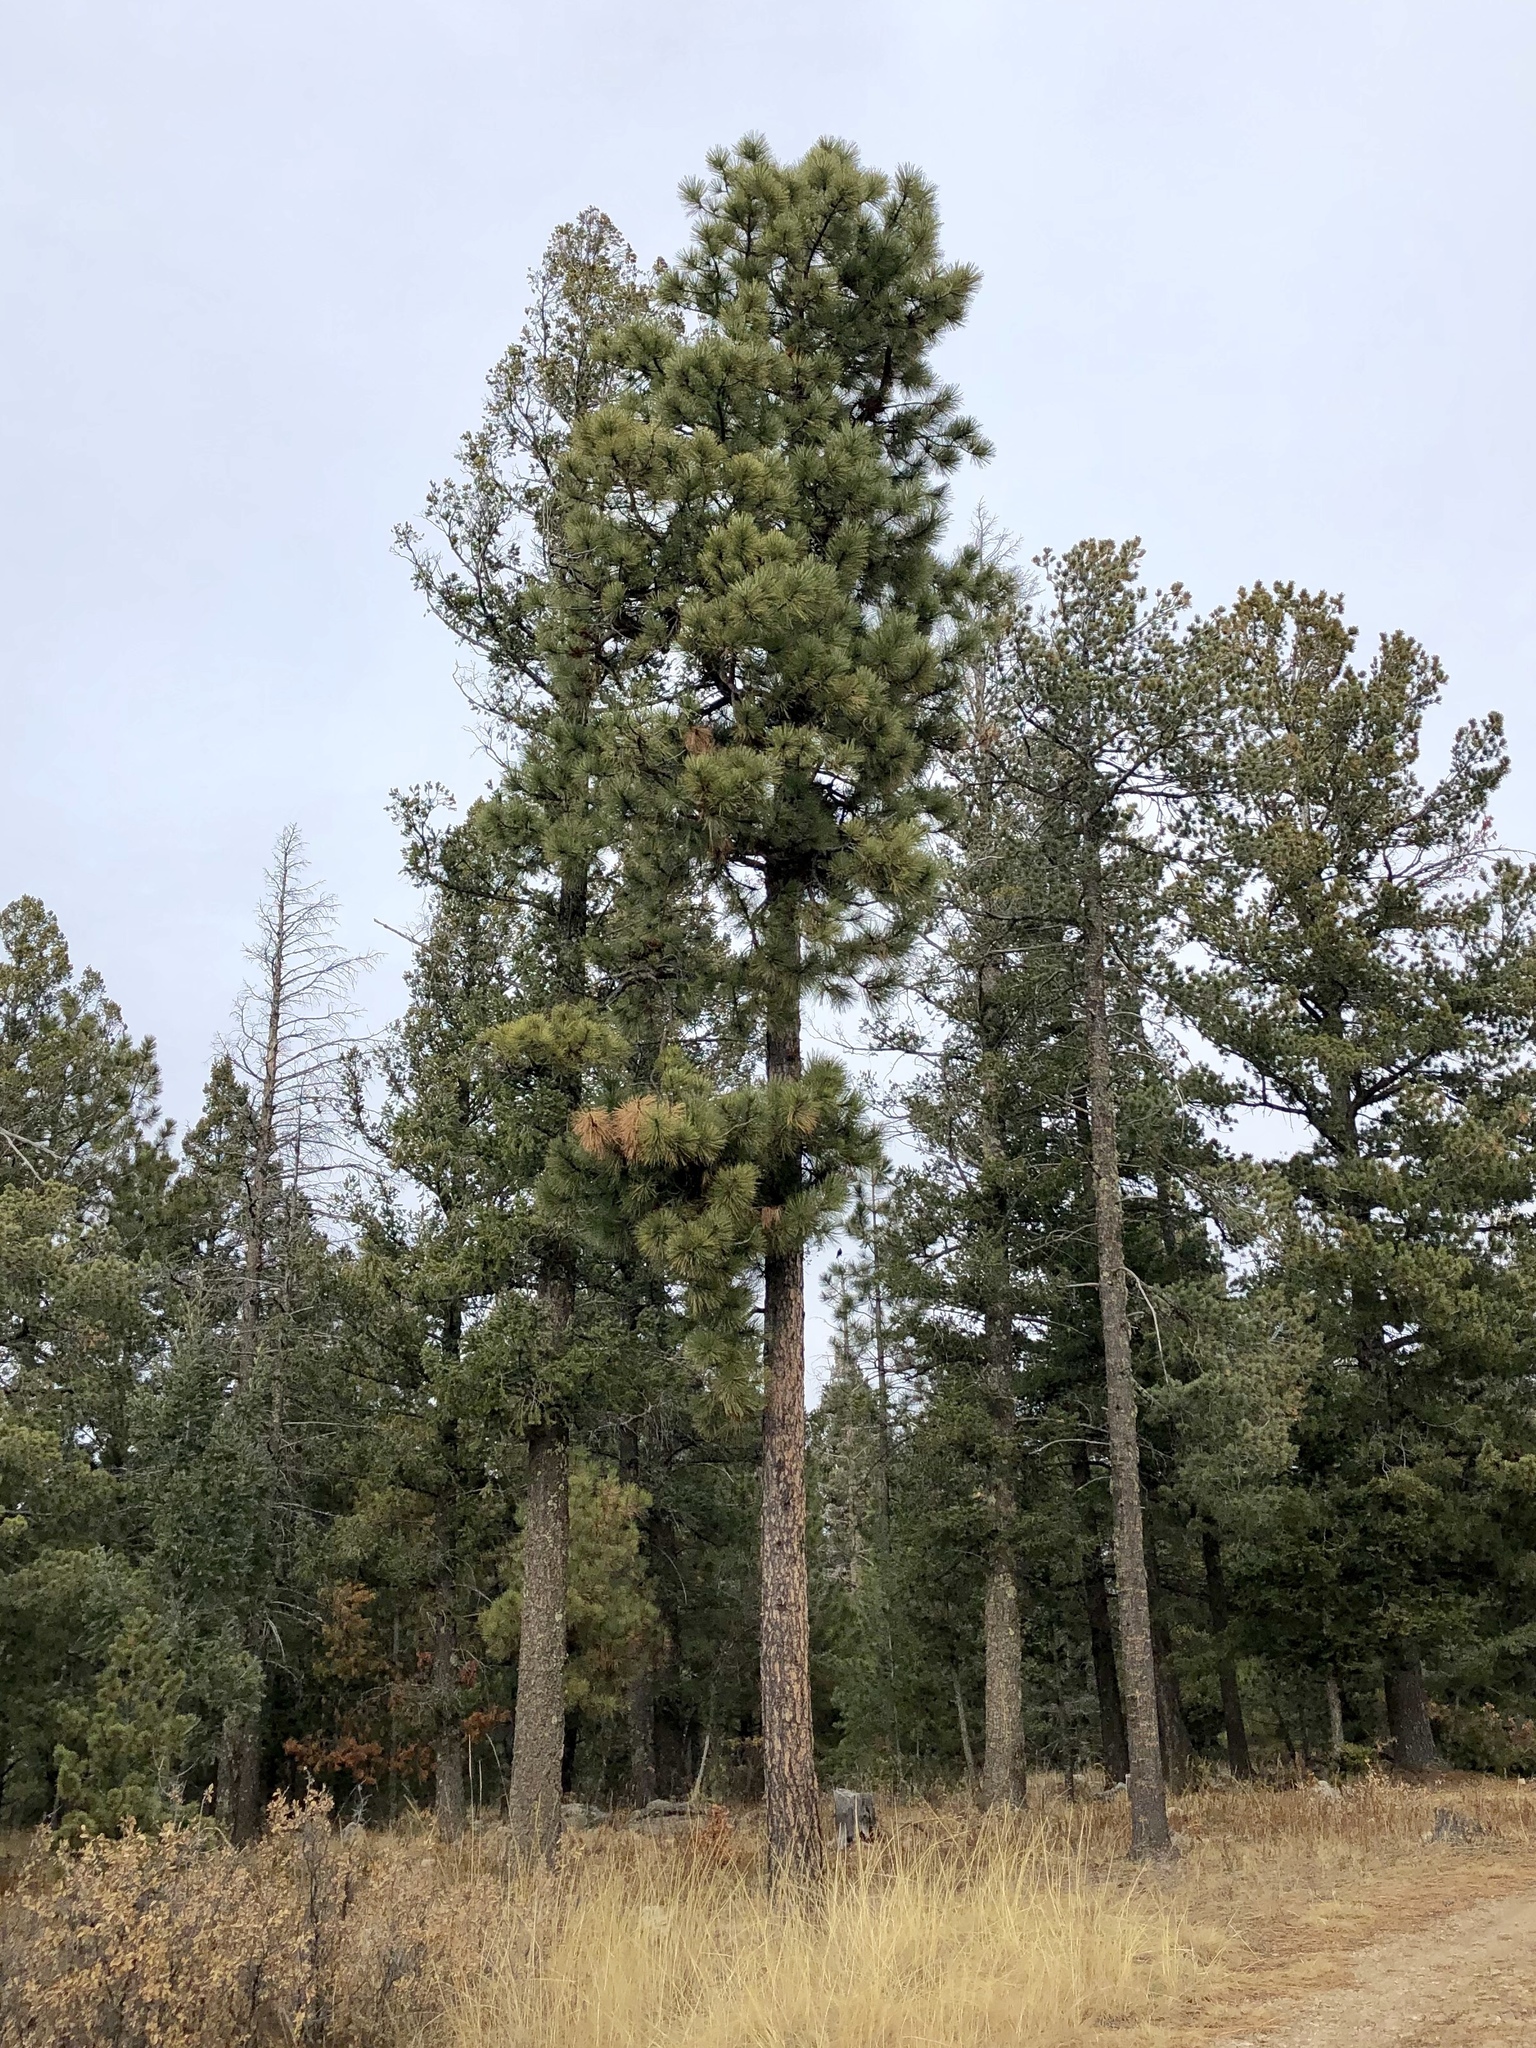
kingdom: Plantae
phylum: Tracheophyta
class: Pinopsida
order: Pinales
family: Pinaceae
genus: Pinus
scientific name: Pinus ponderosa
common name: Western yellow-pine
